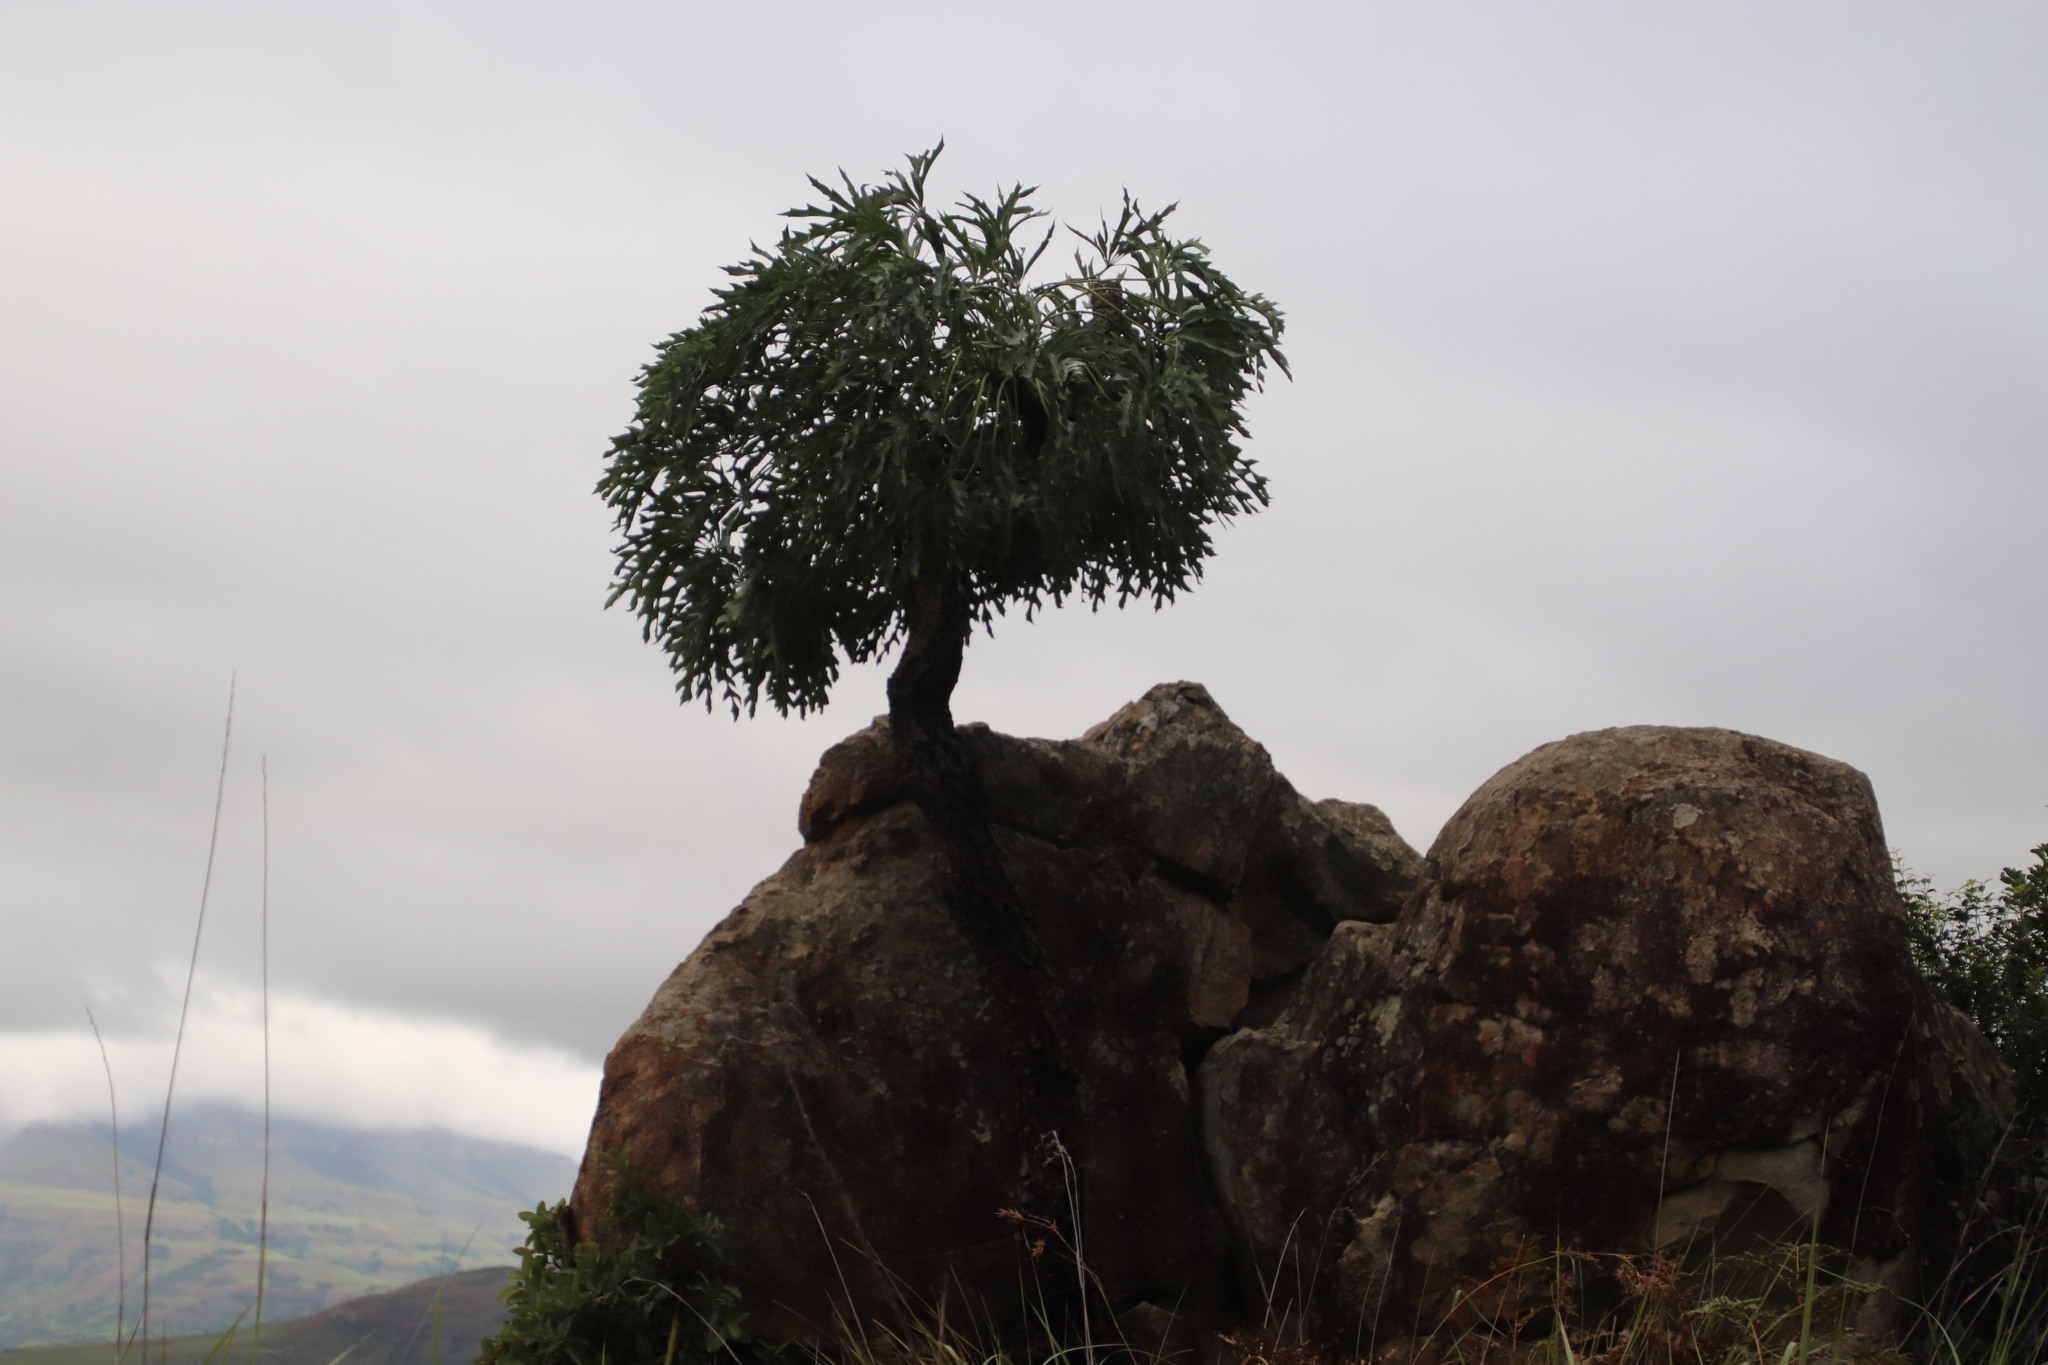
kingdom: Plantae
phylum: Tracheophyta
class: Magnoliopsida
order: Apiales
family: Araliaceae
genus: Cussonia
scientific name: Cussonia paniculata
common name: Cabbagetree
